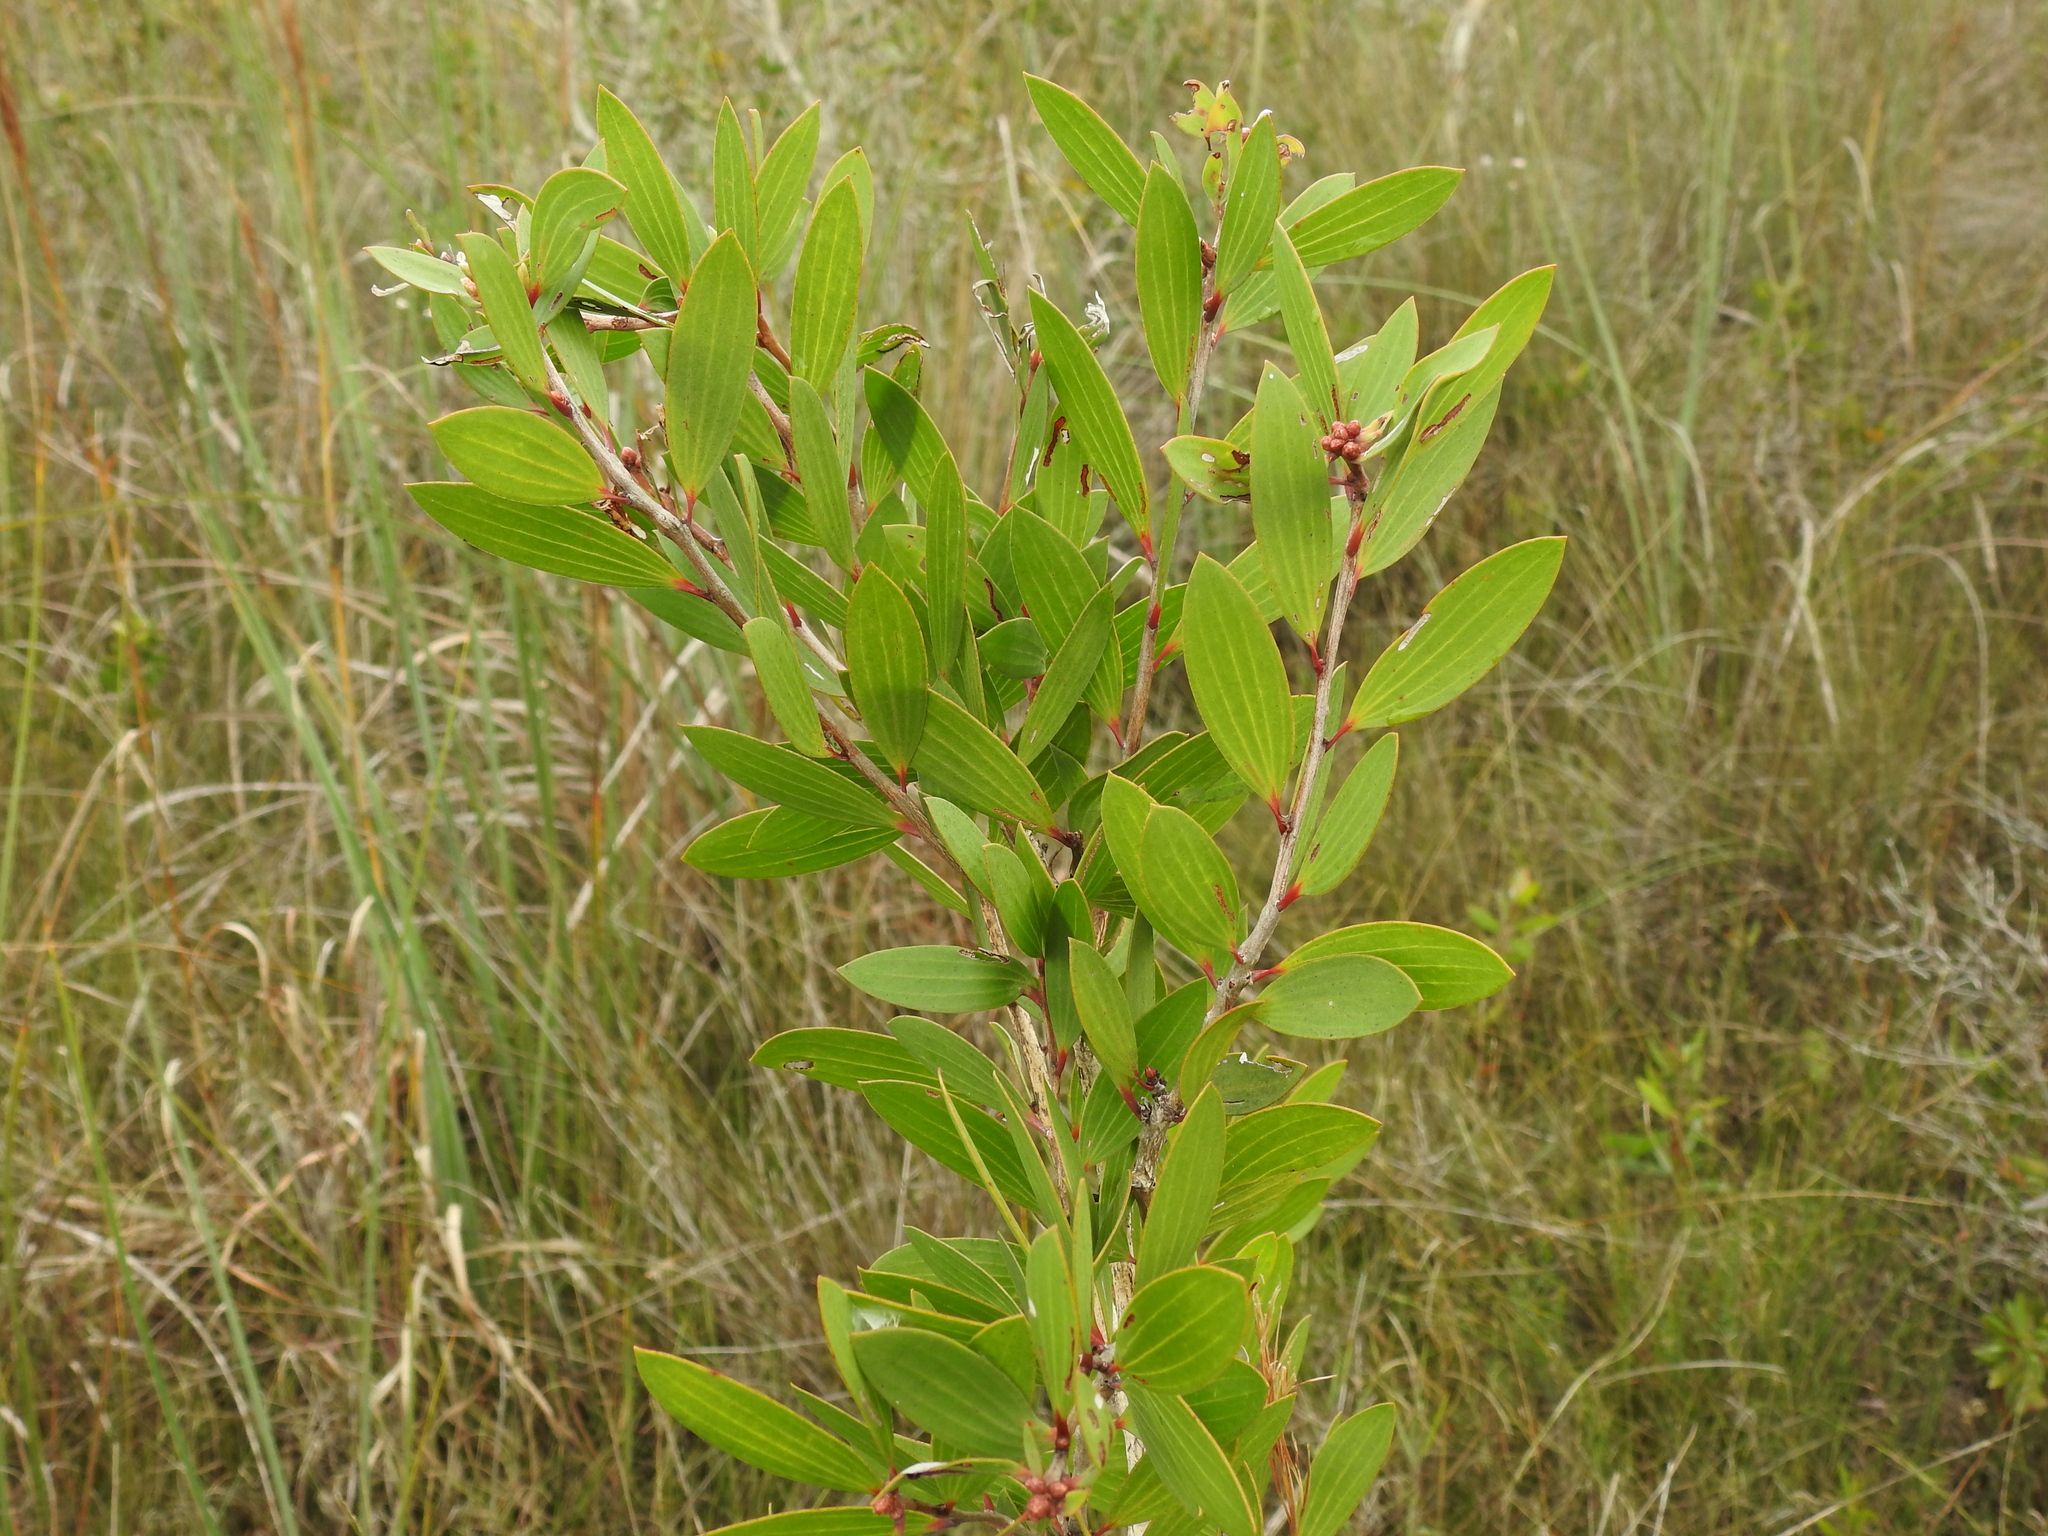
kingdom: Plantae
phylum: Tracheophyta
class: Magnoliopsida
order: Myrtales
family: Myrtaceae
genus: Melaleuca
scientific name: Melaleuca quinquenervia
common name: Punktree
